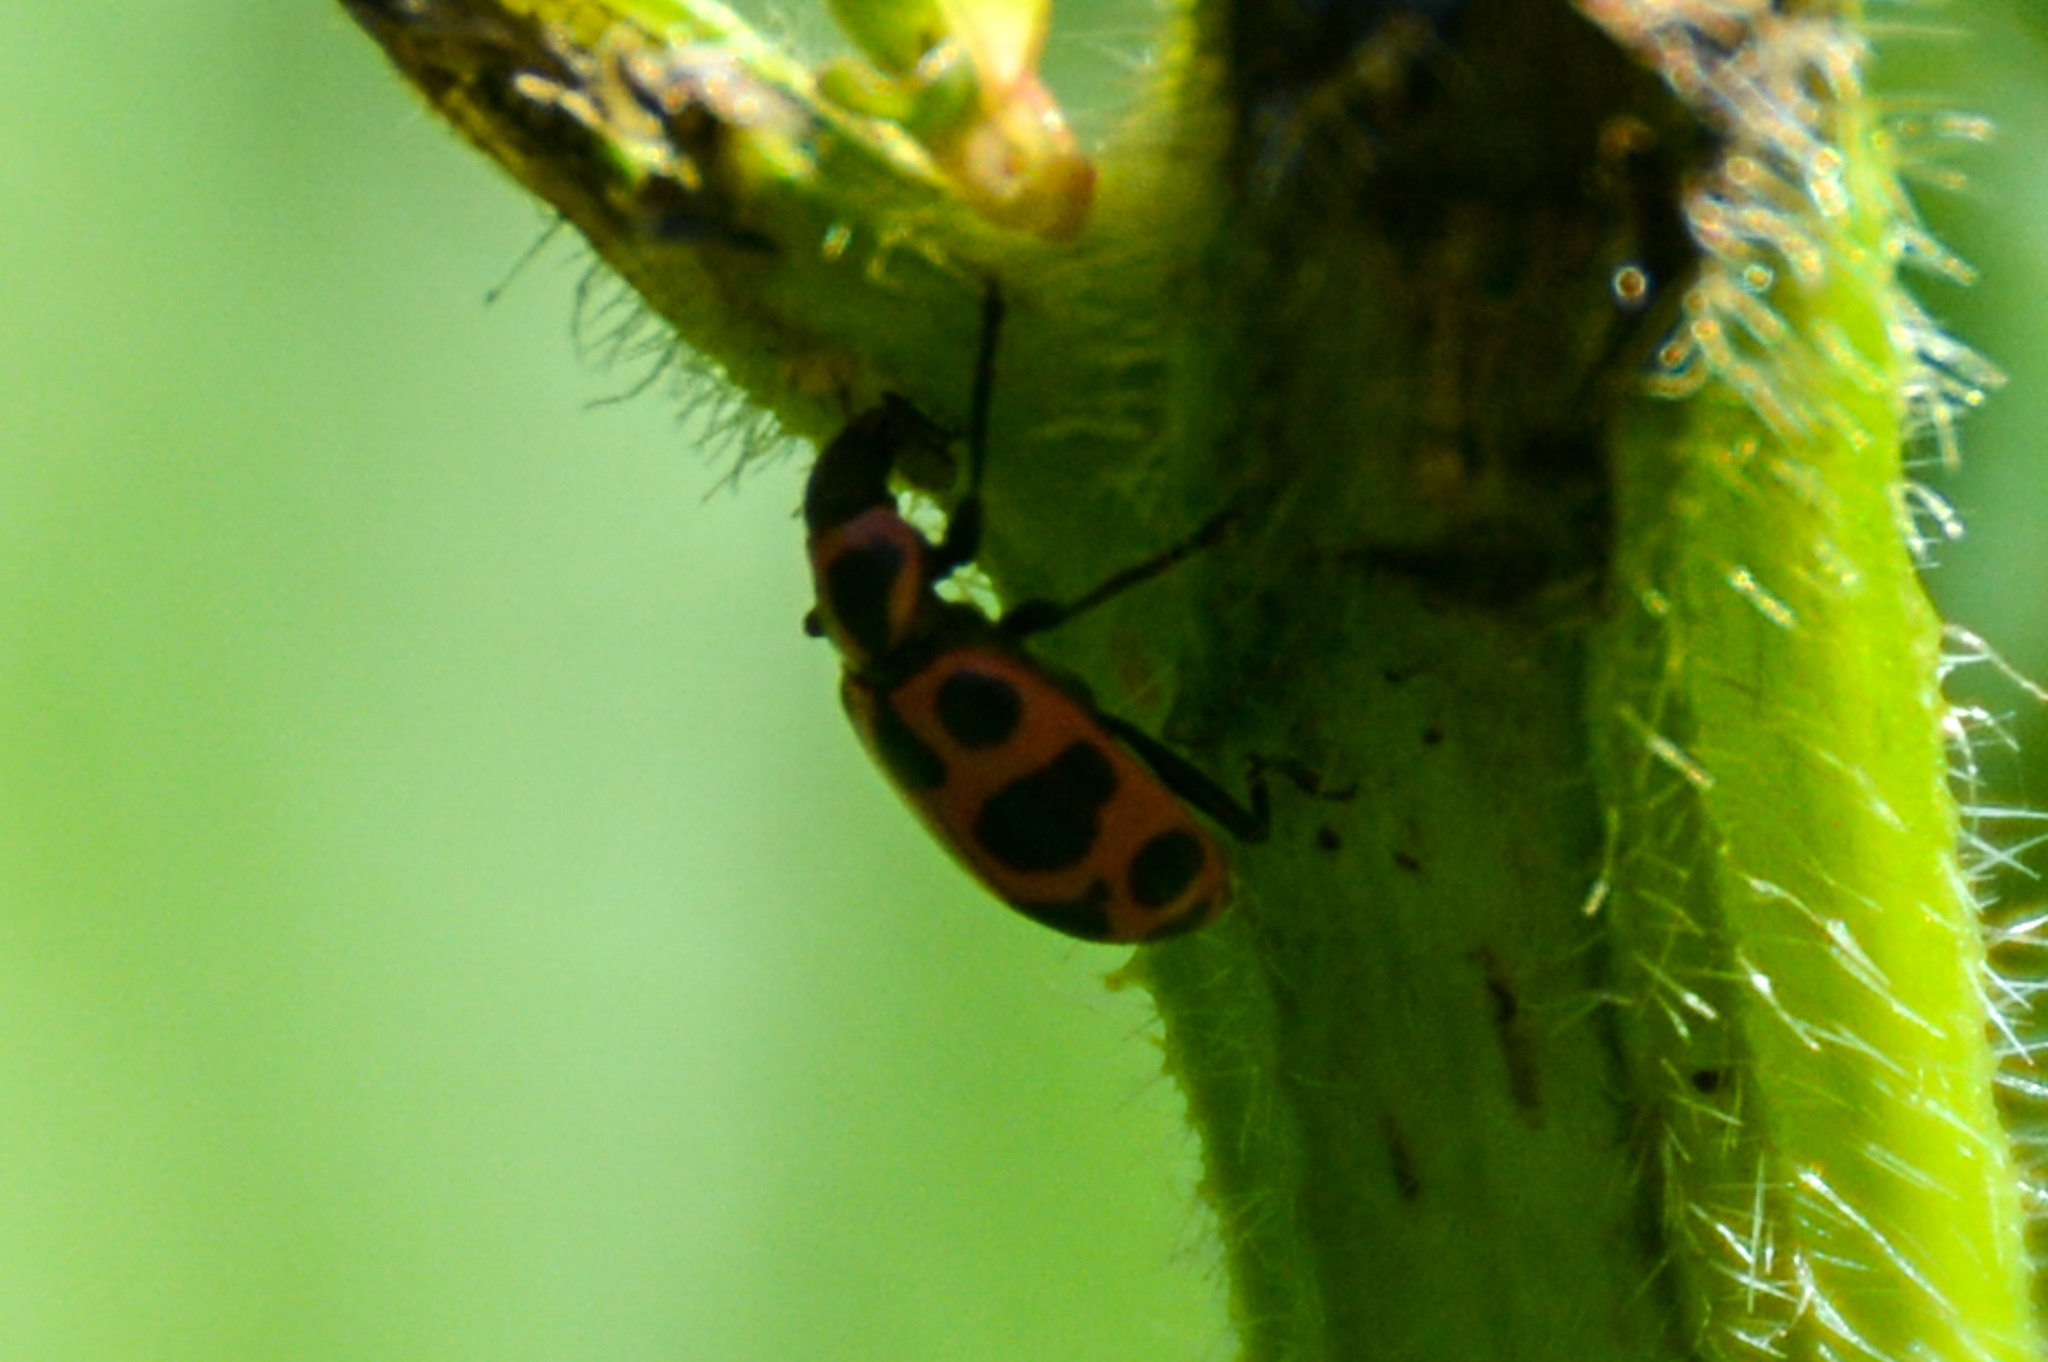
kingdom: Animalia
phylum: Arthropoda
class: Insecta
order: Coleoptera
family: Coccinellidae
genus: Coleomegilla
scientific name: Coleomegilla maculata
